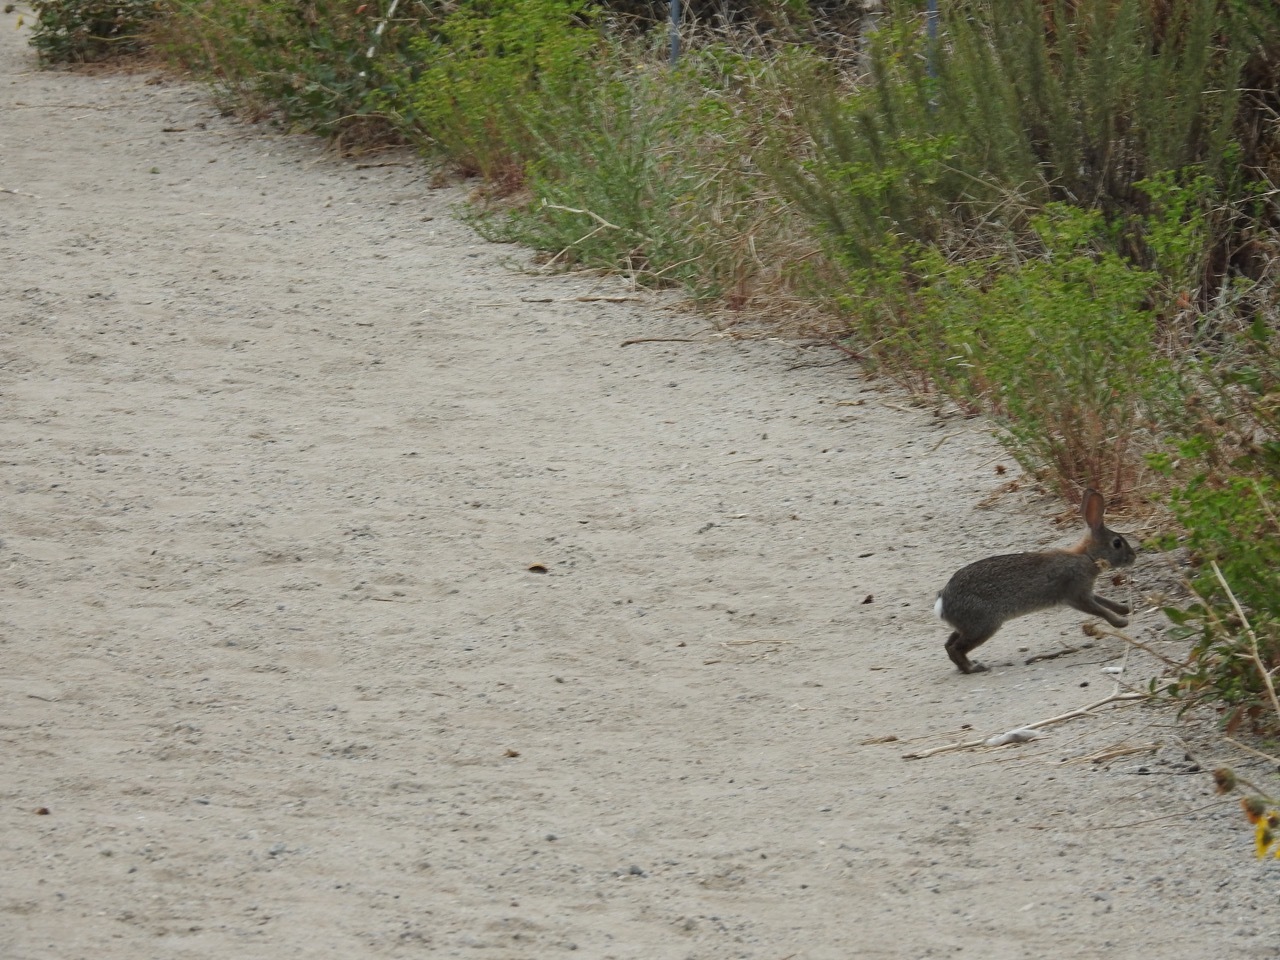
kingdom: Animalia
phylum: Chordata
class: Mammalia
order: Lagomorpha
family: Leporidae
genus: Sylvilagus
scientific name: Sylvilagus audubonii
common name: Desert cottontail
